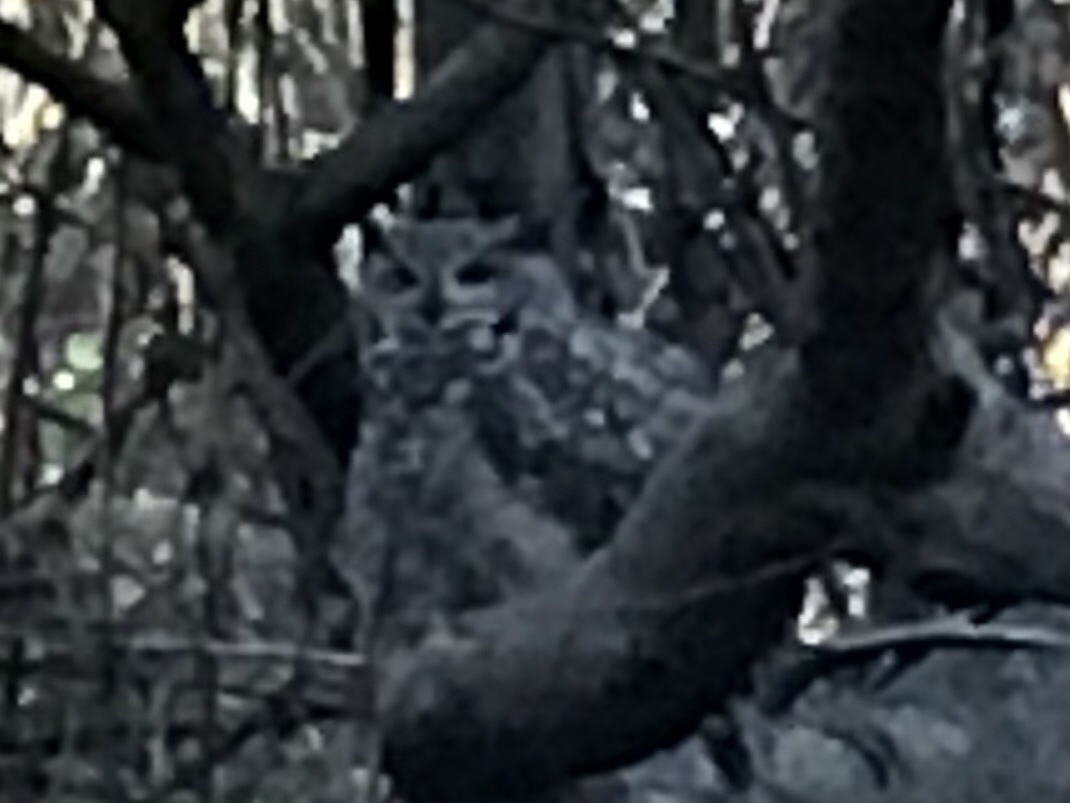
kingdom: Animalia
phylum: Chordata
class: Aves
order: Strigiformes
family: Strigidae
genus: Bubo
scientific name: Bubo virginianus
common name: Great horned owl
